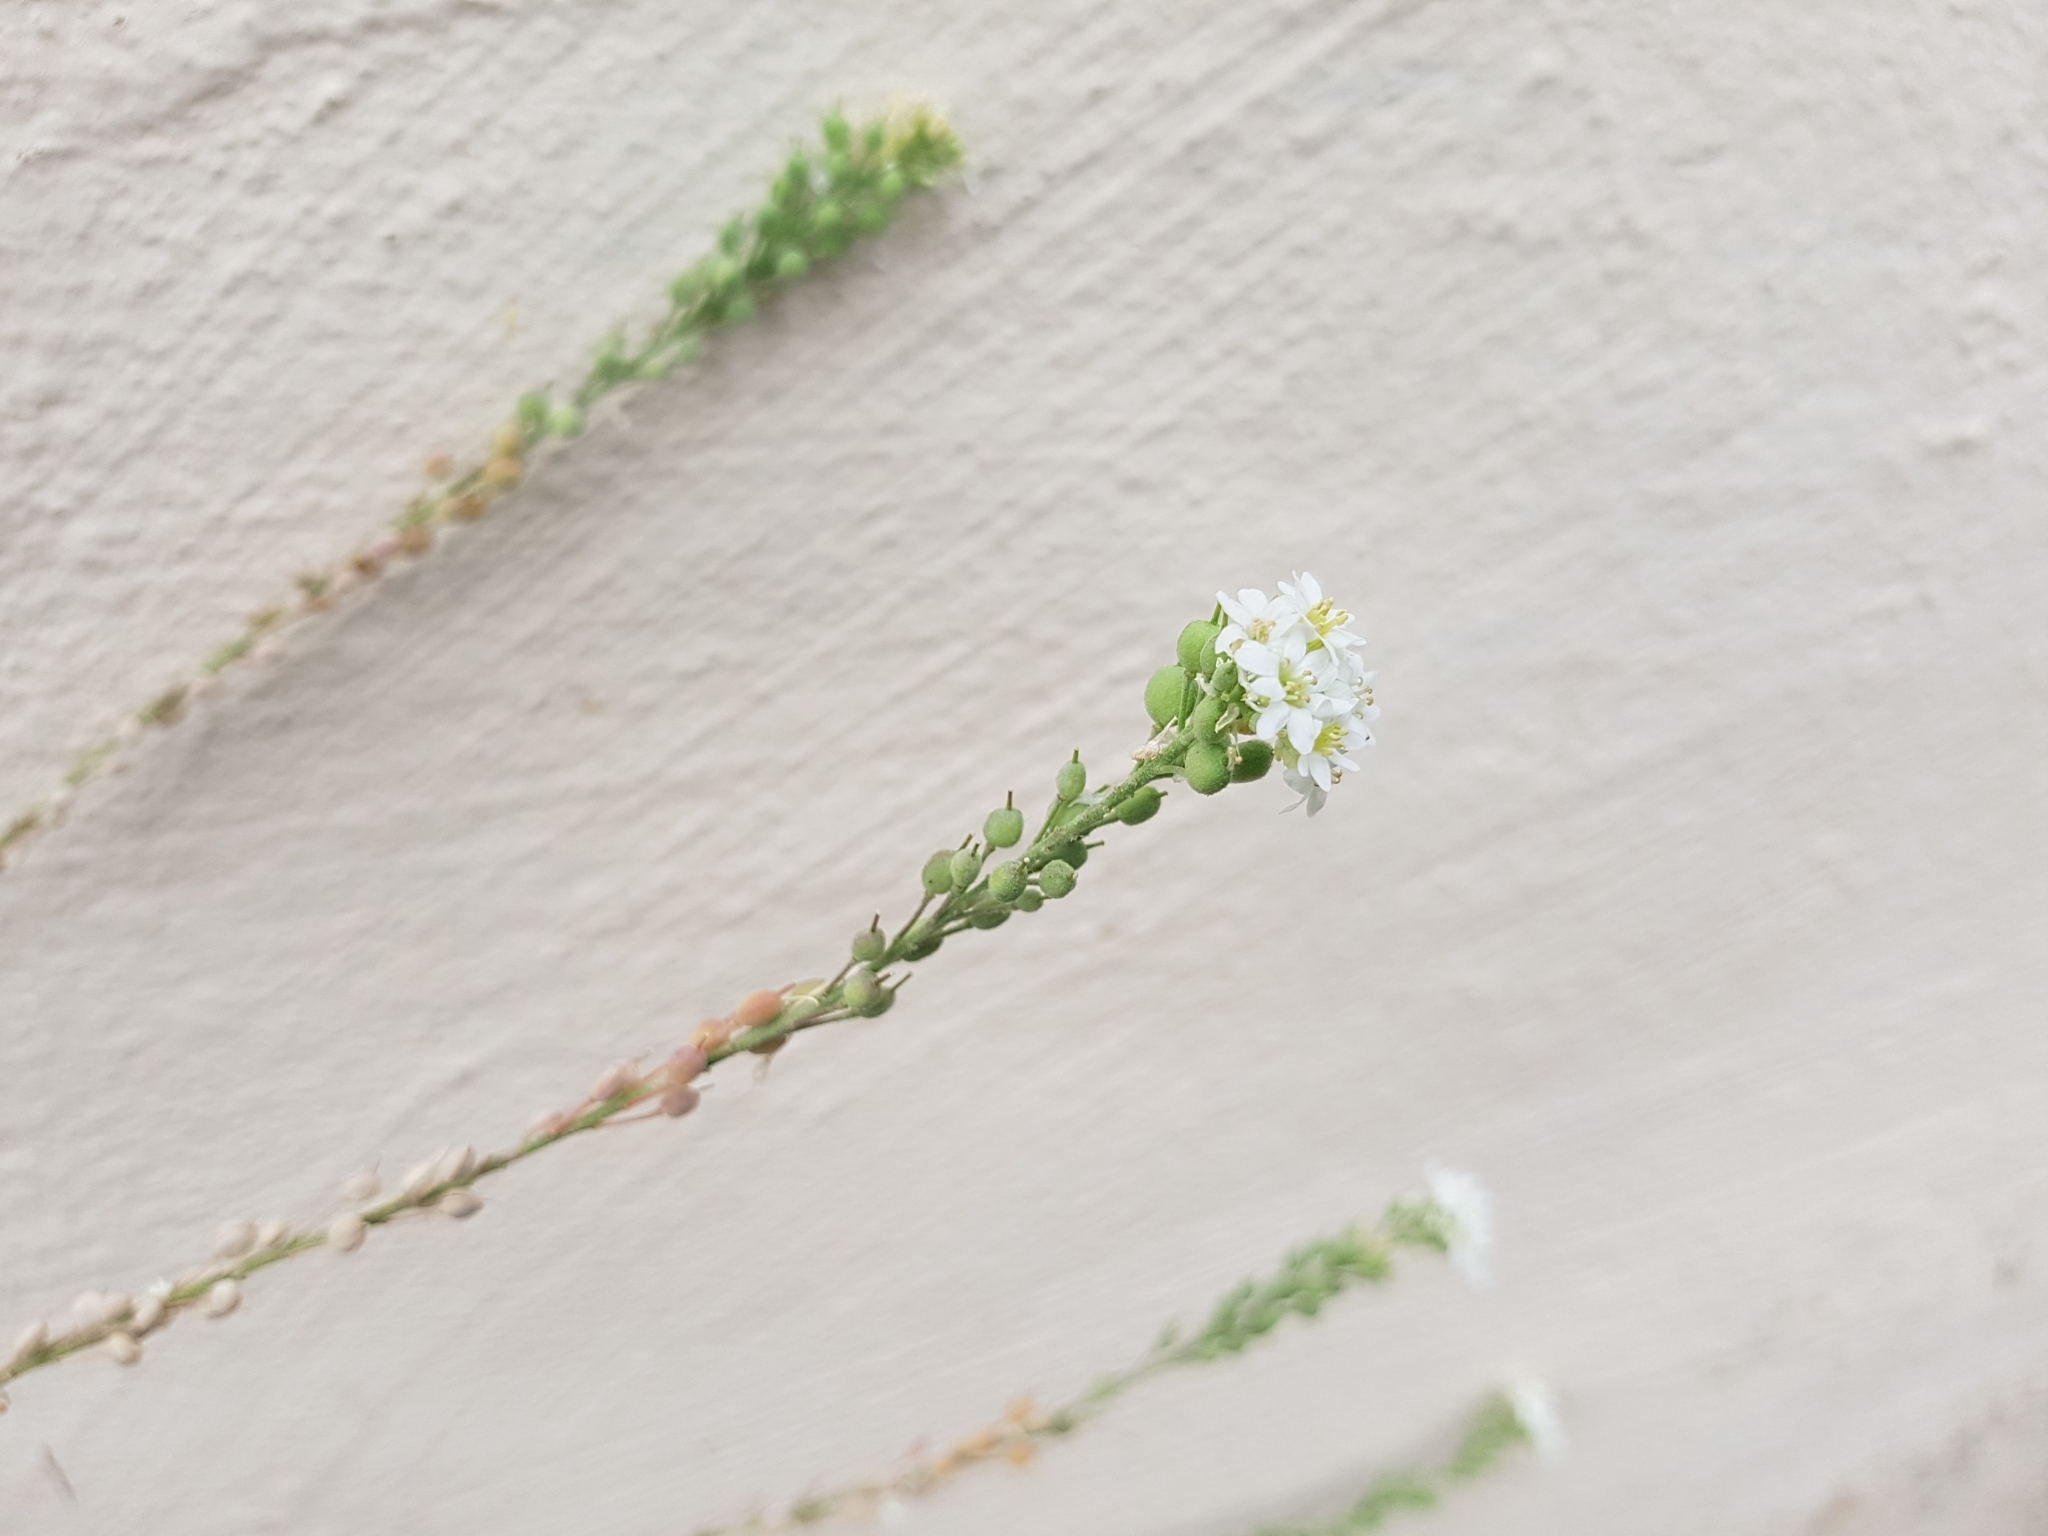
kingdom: Plantae
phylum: Tracheophyta
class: Magnoliopsida
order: Brassicales
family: Brassicaceae
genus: Berteroa
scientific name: Berteroa incana
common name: Hoary alison
